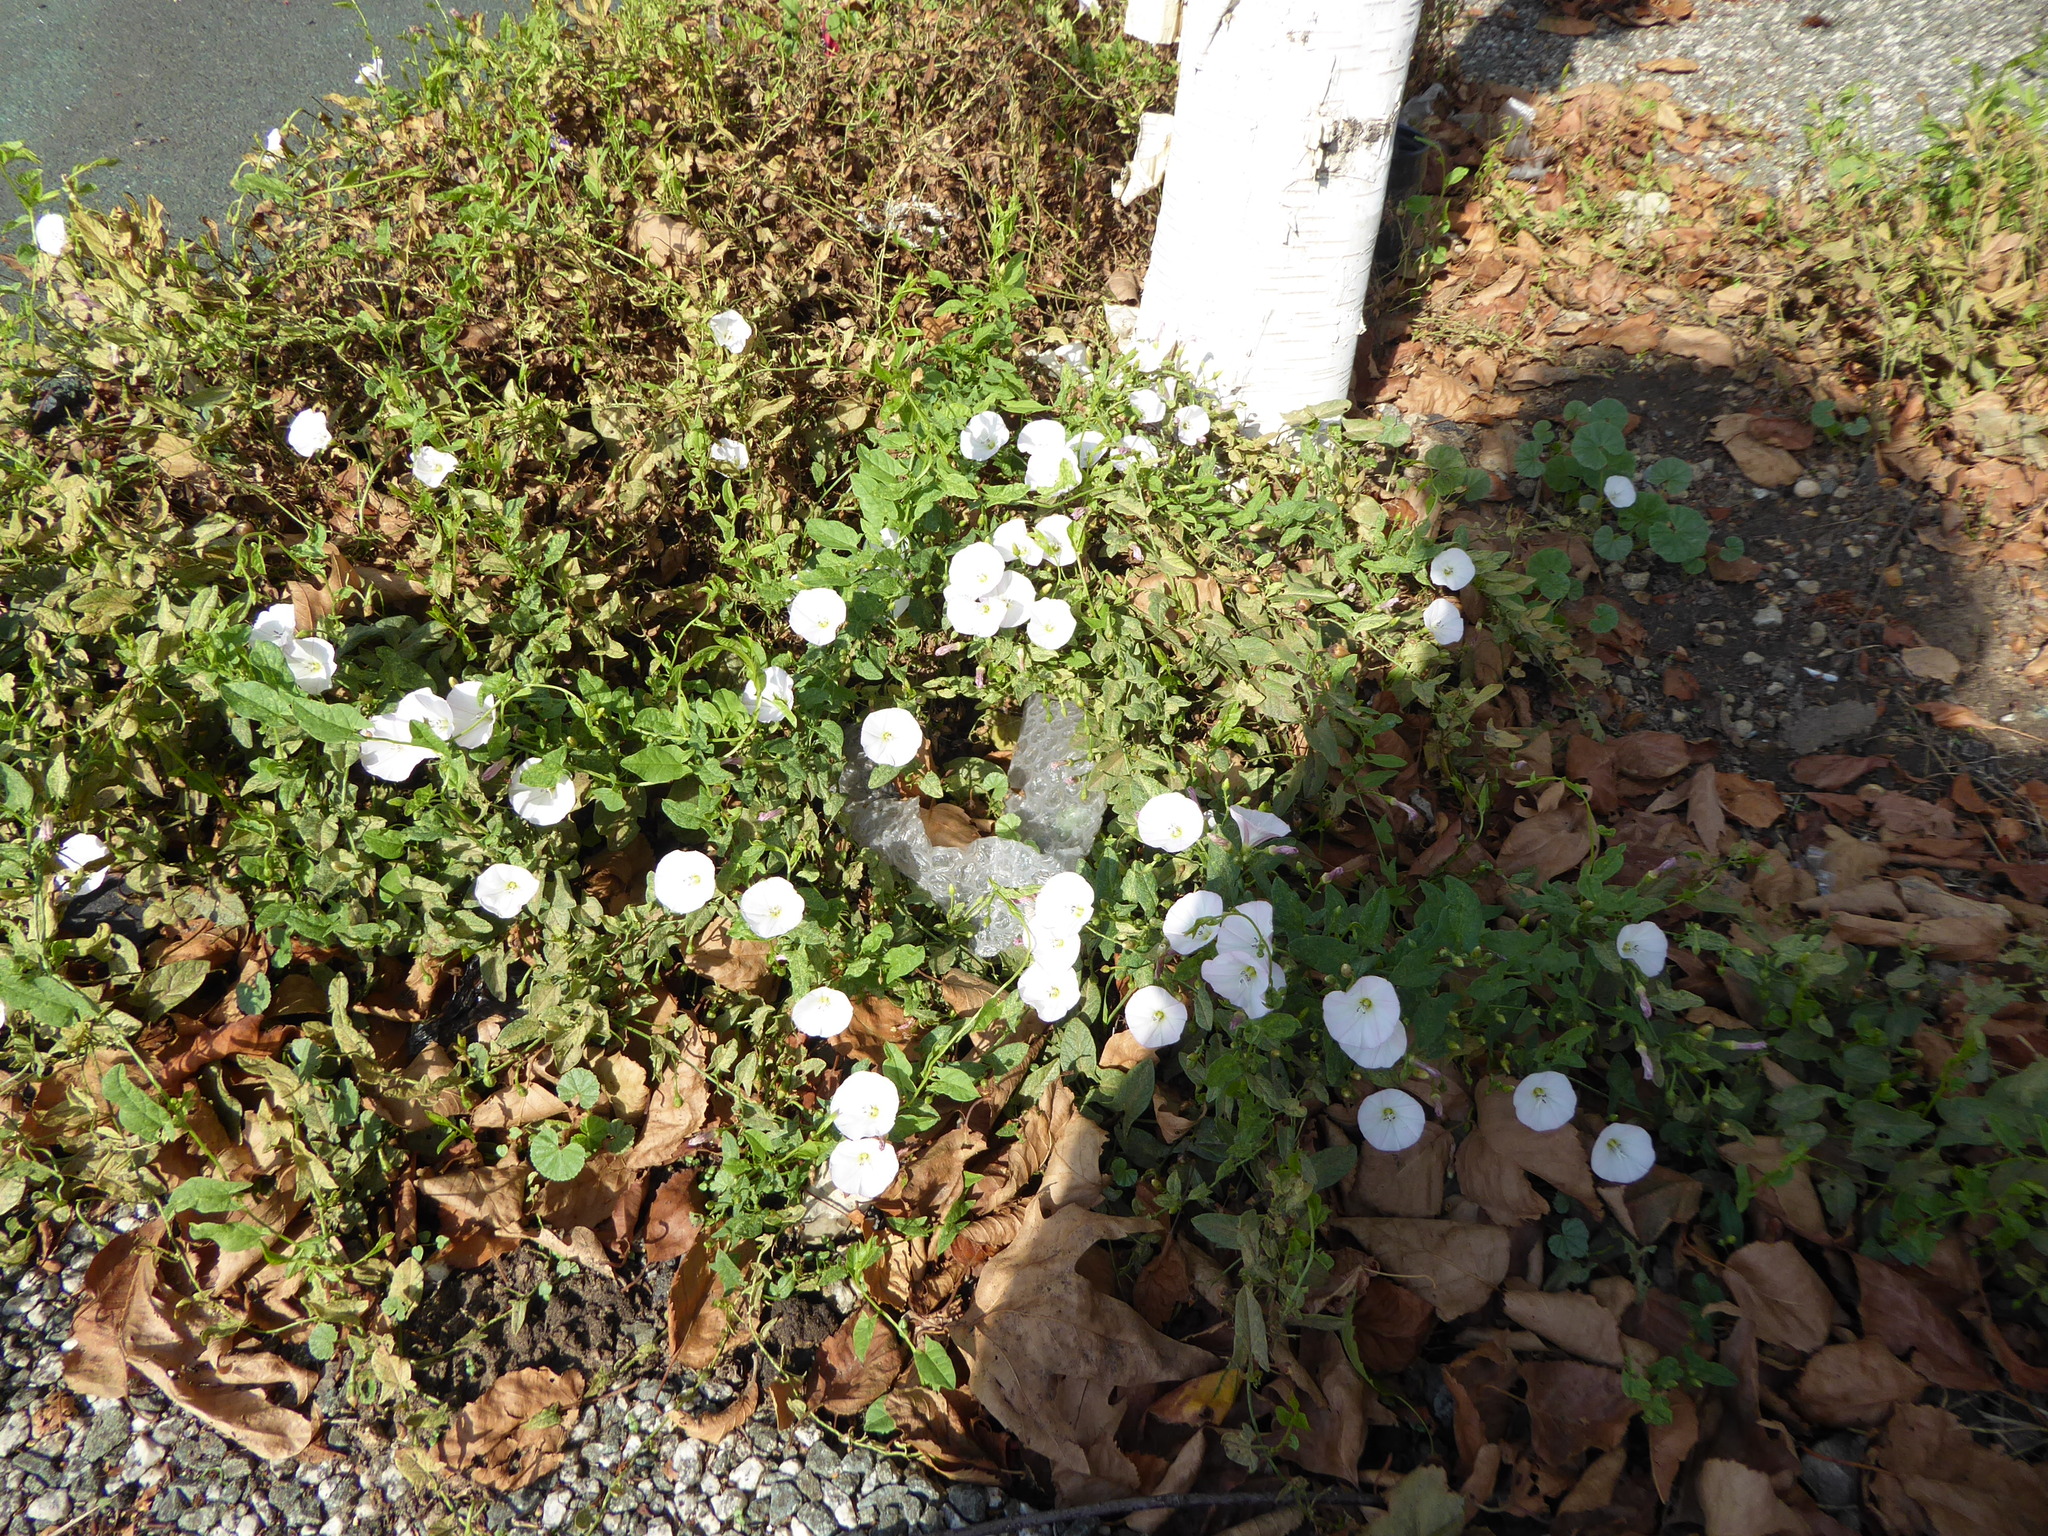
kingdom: Plantae
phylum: Tracheophyta
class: Magnoliopsida
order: Solanales
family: Convolvulaceae
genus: Convolvulus
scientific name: Convolvulus arvensis
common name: Field bindweed
